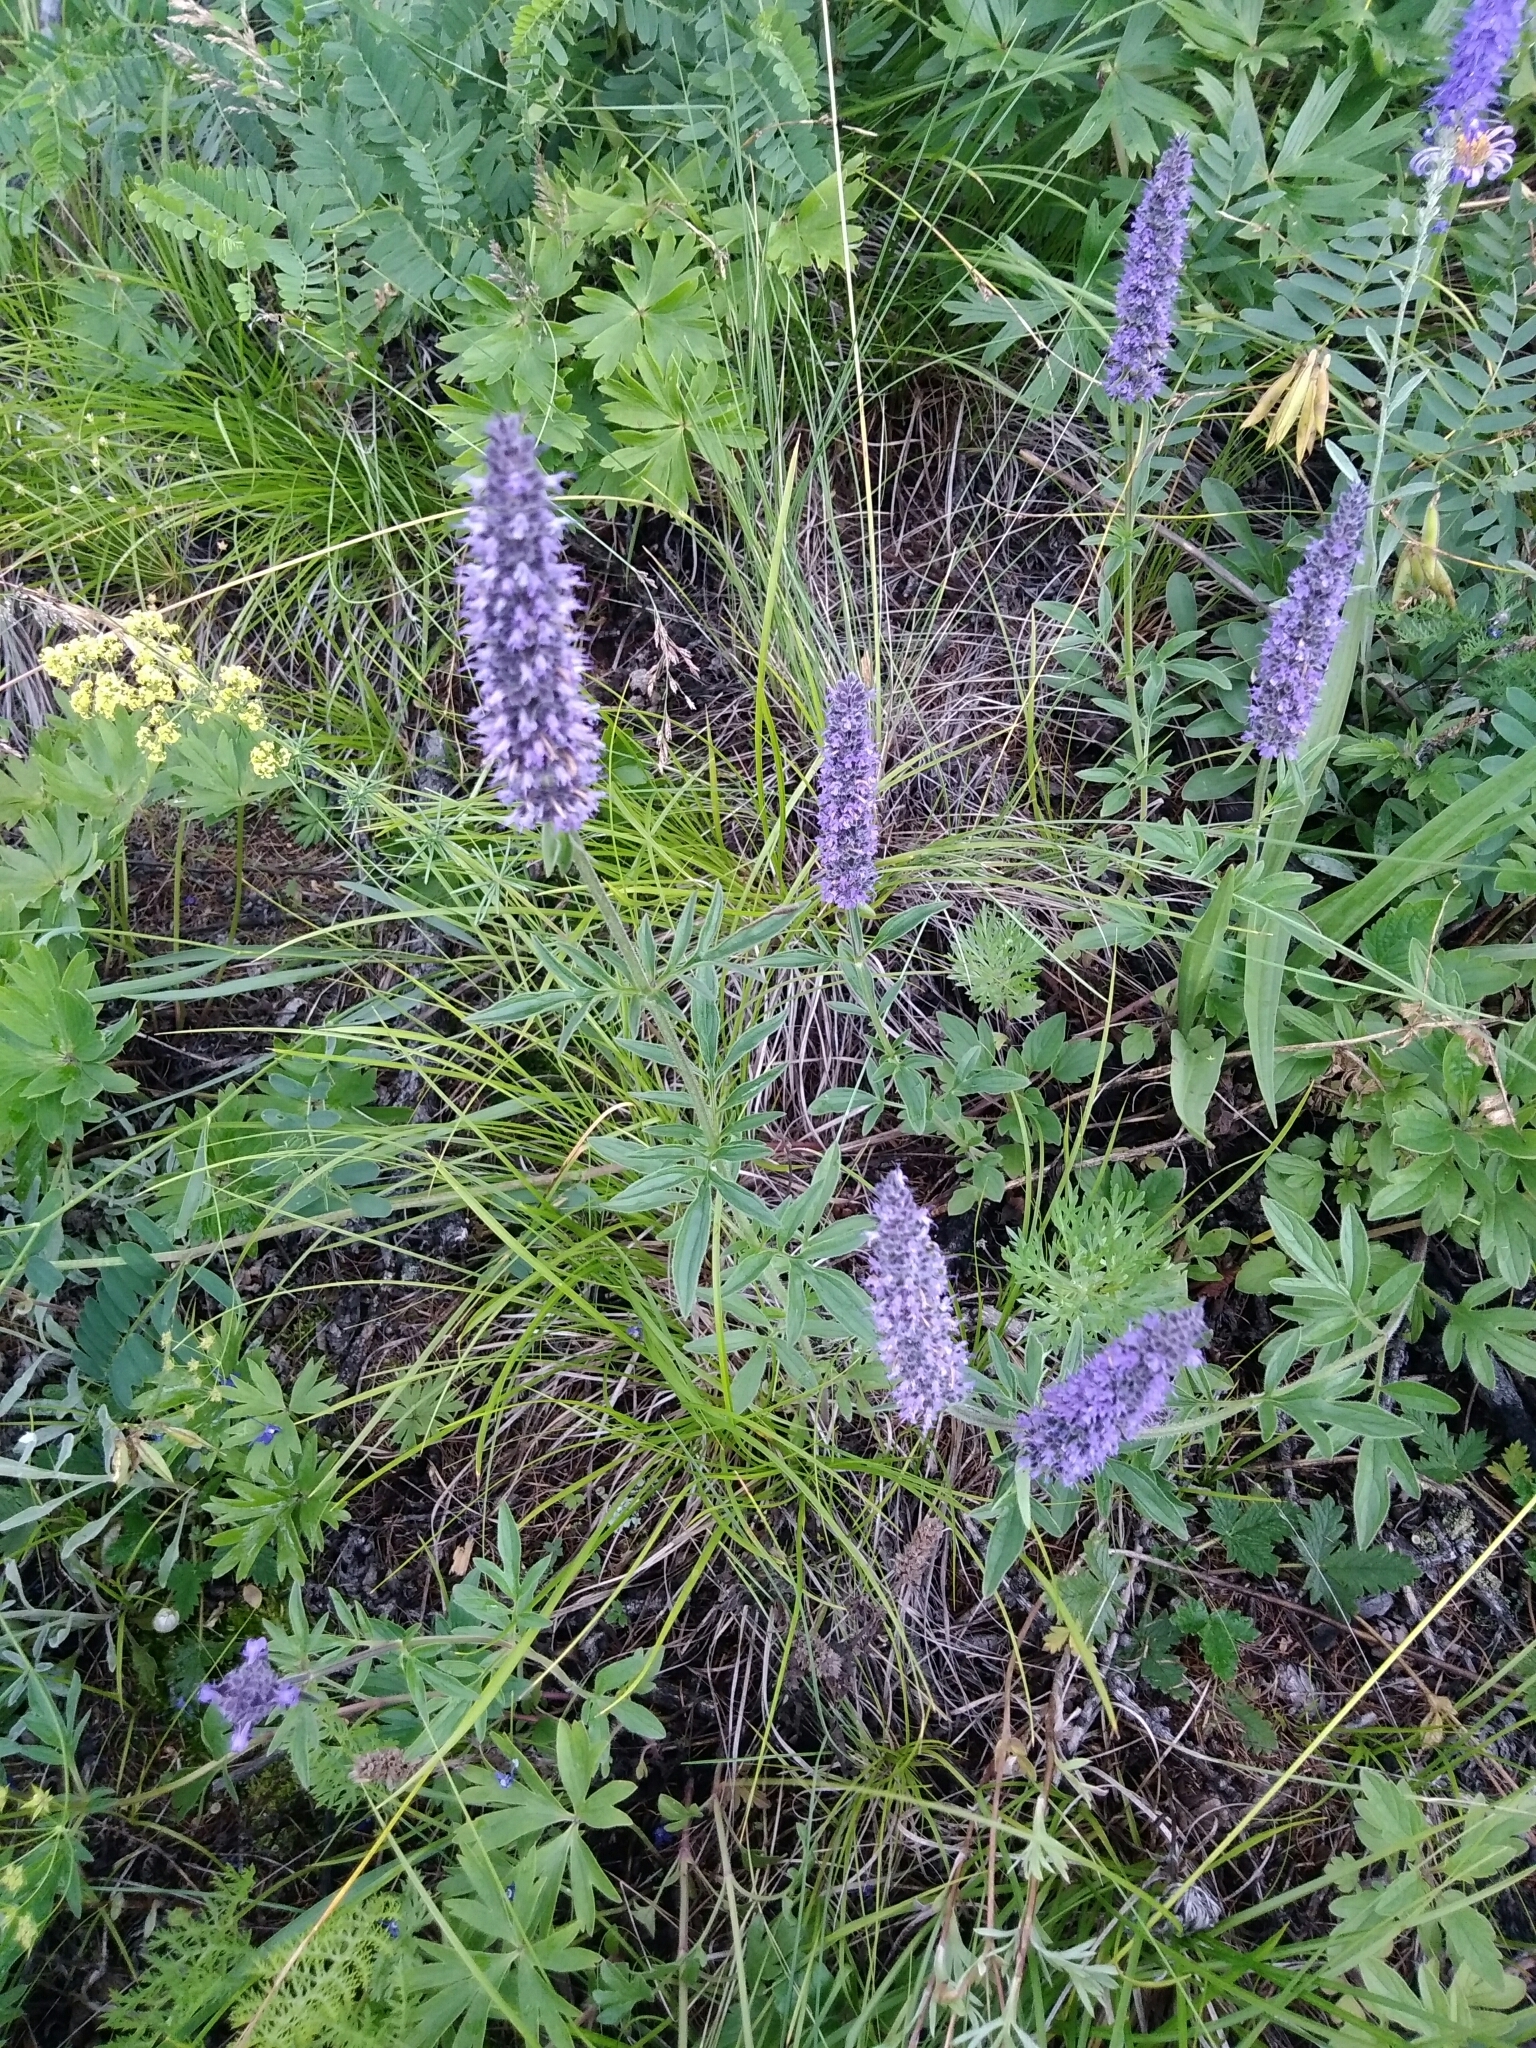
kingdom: Plantae
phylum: Tracheophyta
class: Magnoliopsida
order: Lamiales
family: Lamiaceae
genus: Nepeta
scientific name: Nepeta multifida
